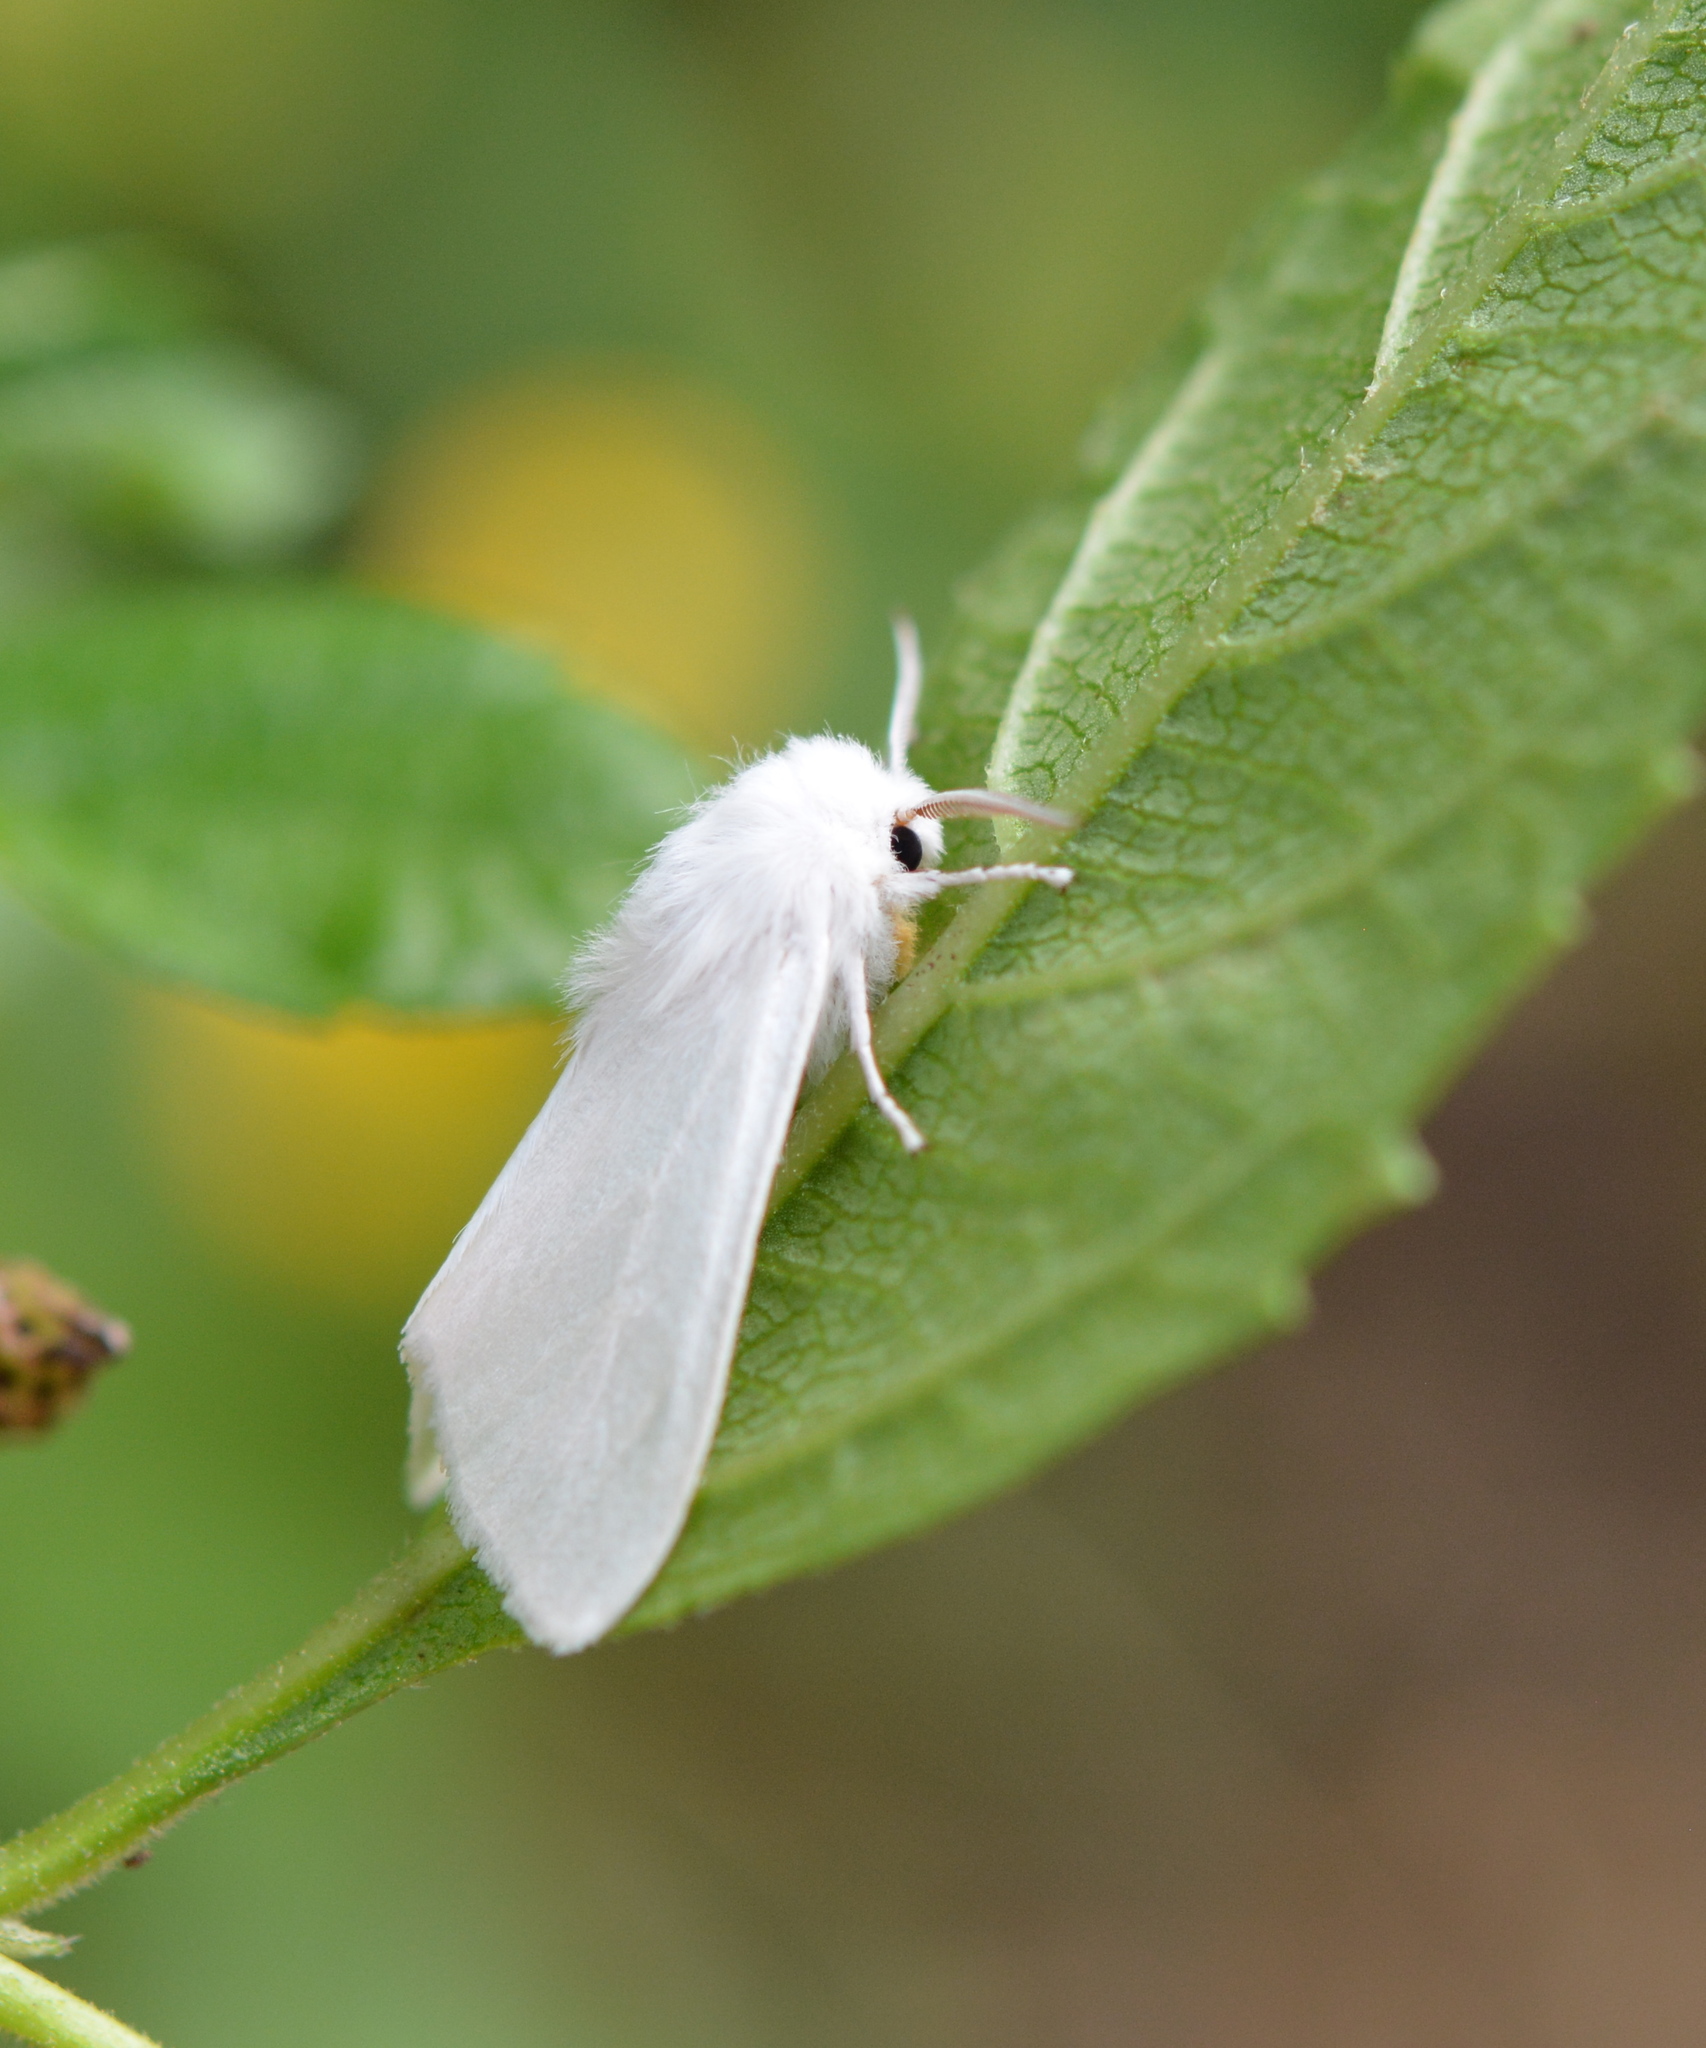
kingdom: Animalia
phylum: Arthropoda
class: Insecta
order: Lepidoptera
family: Erebidae
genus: Hyphantria
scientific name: Hyphantria cunea
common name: American white moth
